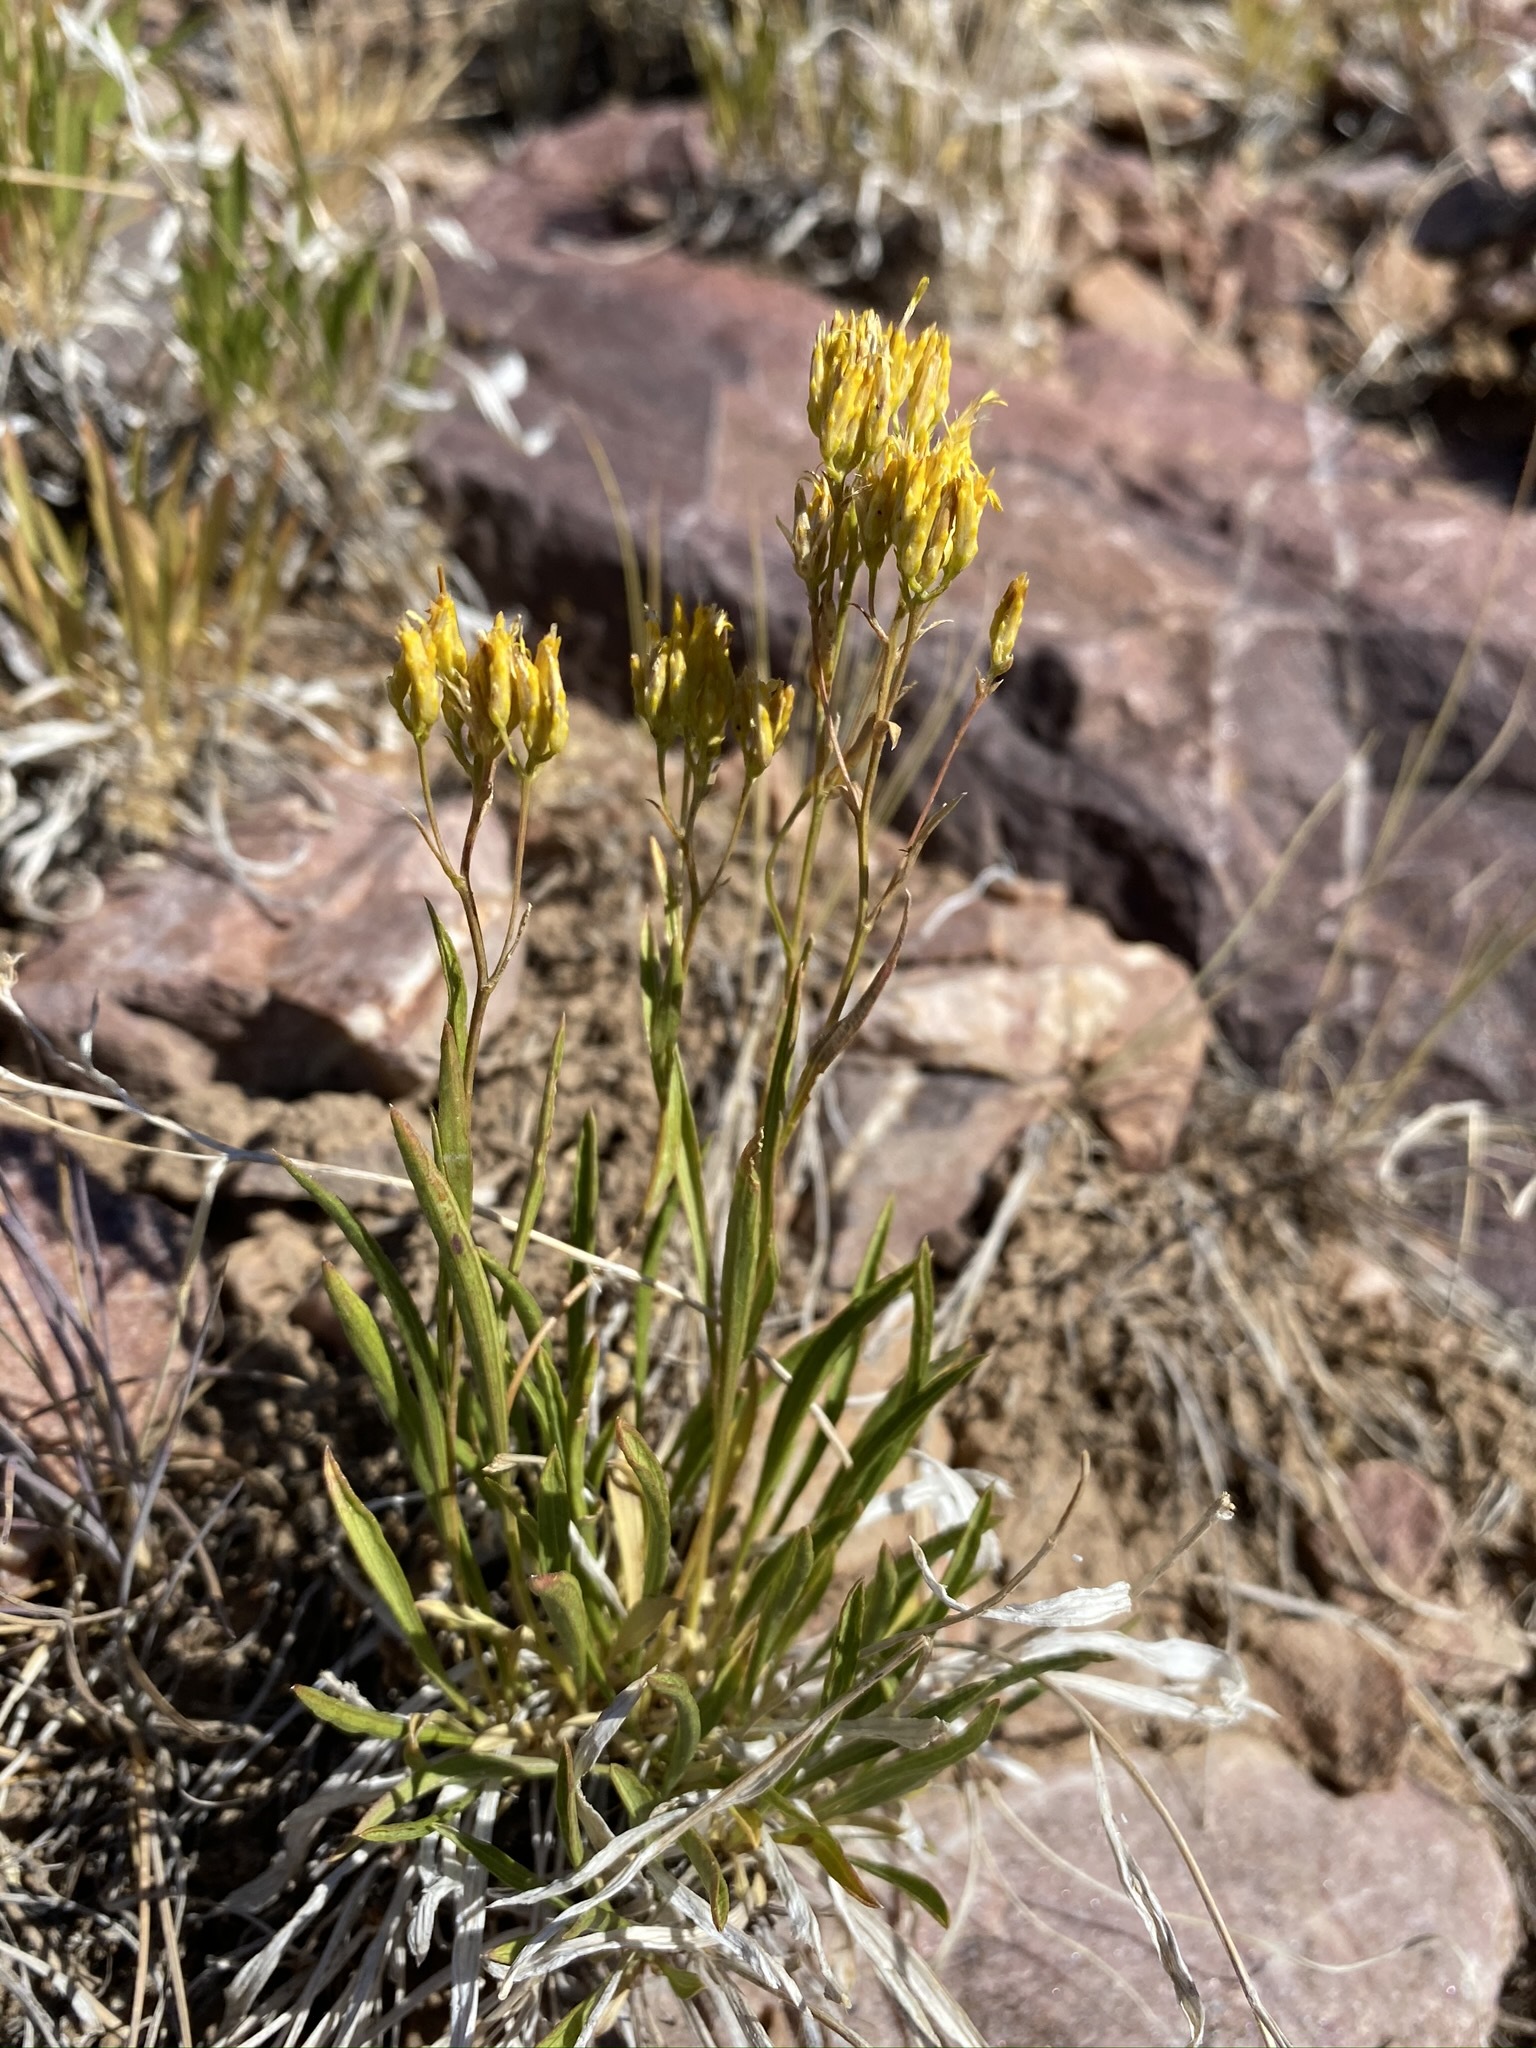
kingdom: Plantae
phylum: Tracheophyta
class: Magnoliopsida
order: Asterales
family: Asteraceae
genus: Petradoria
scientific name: Petradoria pumila
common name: Rock-goldenrod
